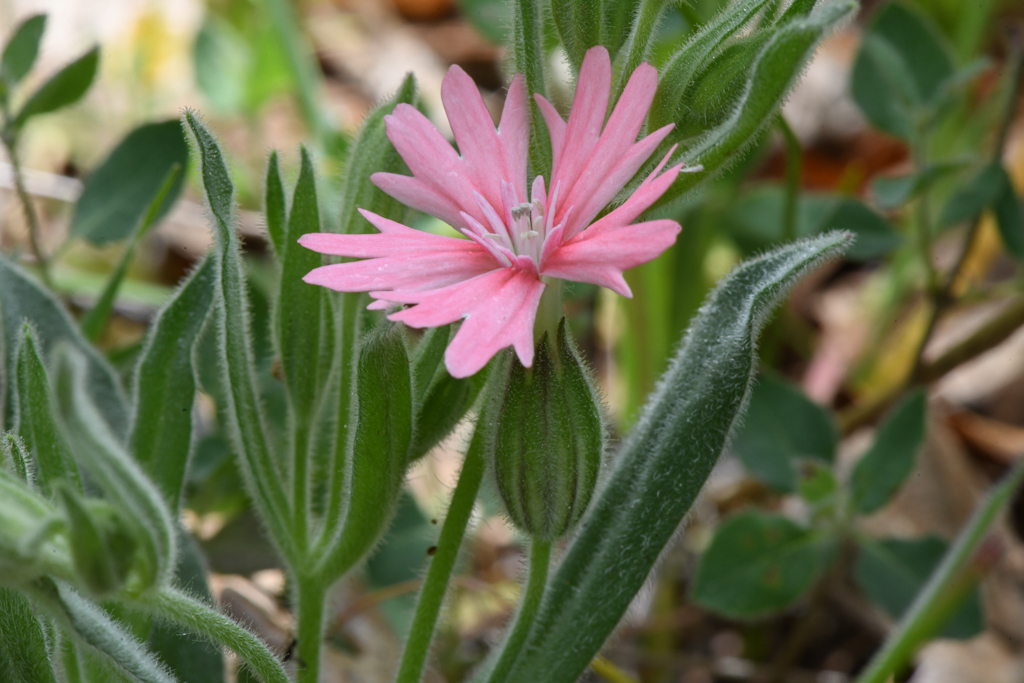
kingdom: Plantae
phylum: Tracheophyta
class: Magnoliopsida
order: Caryophyllales
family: Caryophyllaceae
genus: Silene
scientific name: Silene hookeri
